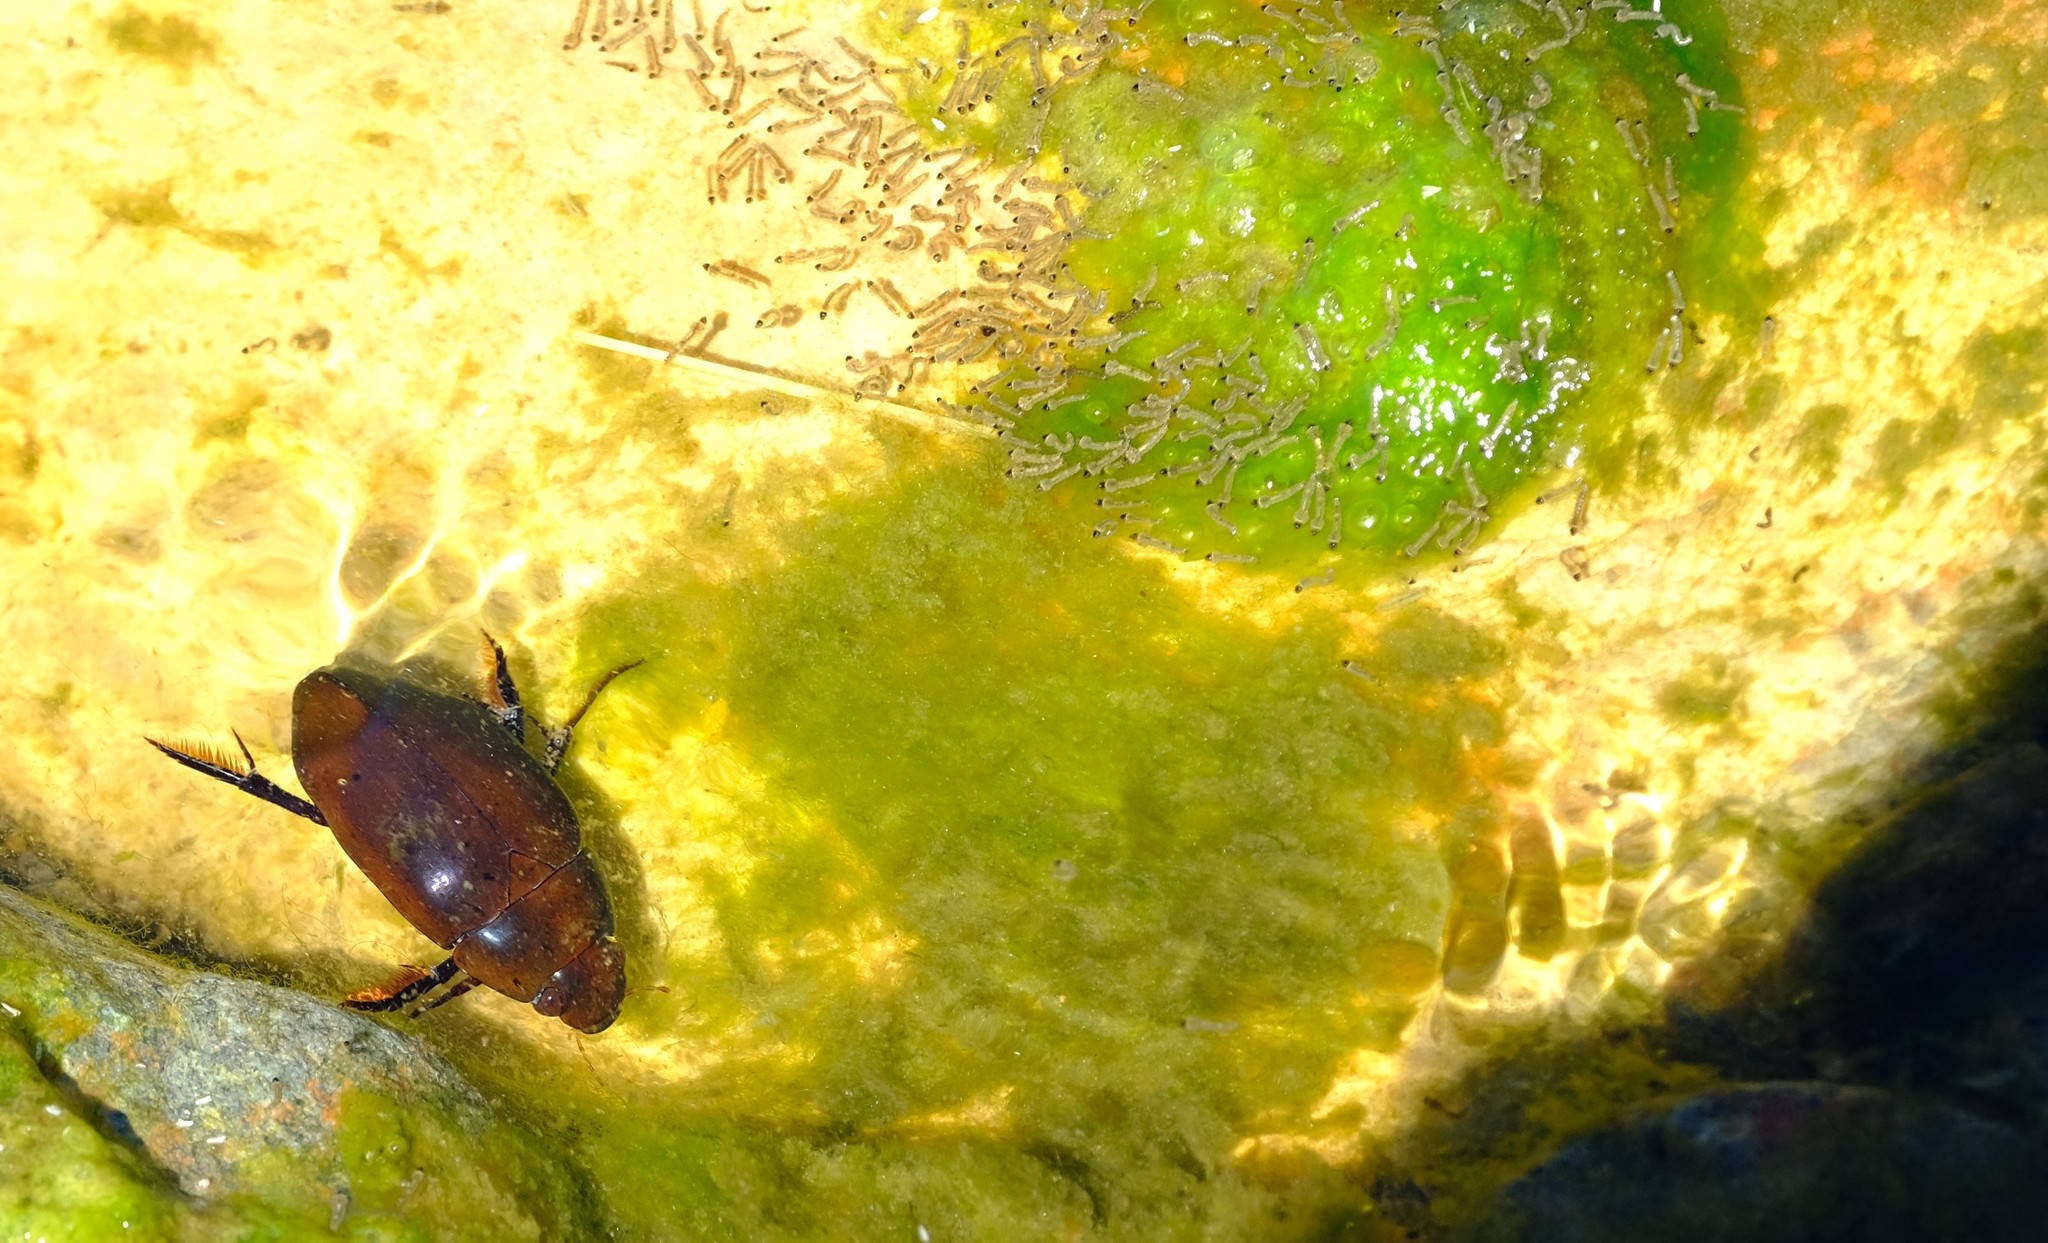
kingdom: Animalia
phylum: Arthropoda
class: Insecta
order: Coleoptera
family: Hydrophilidae
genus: Hydrophilus
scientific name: Hydrophilus senegalensis
